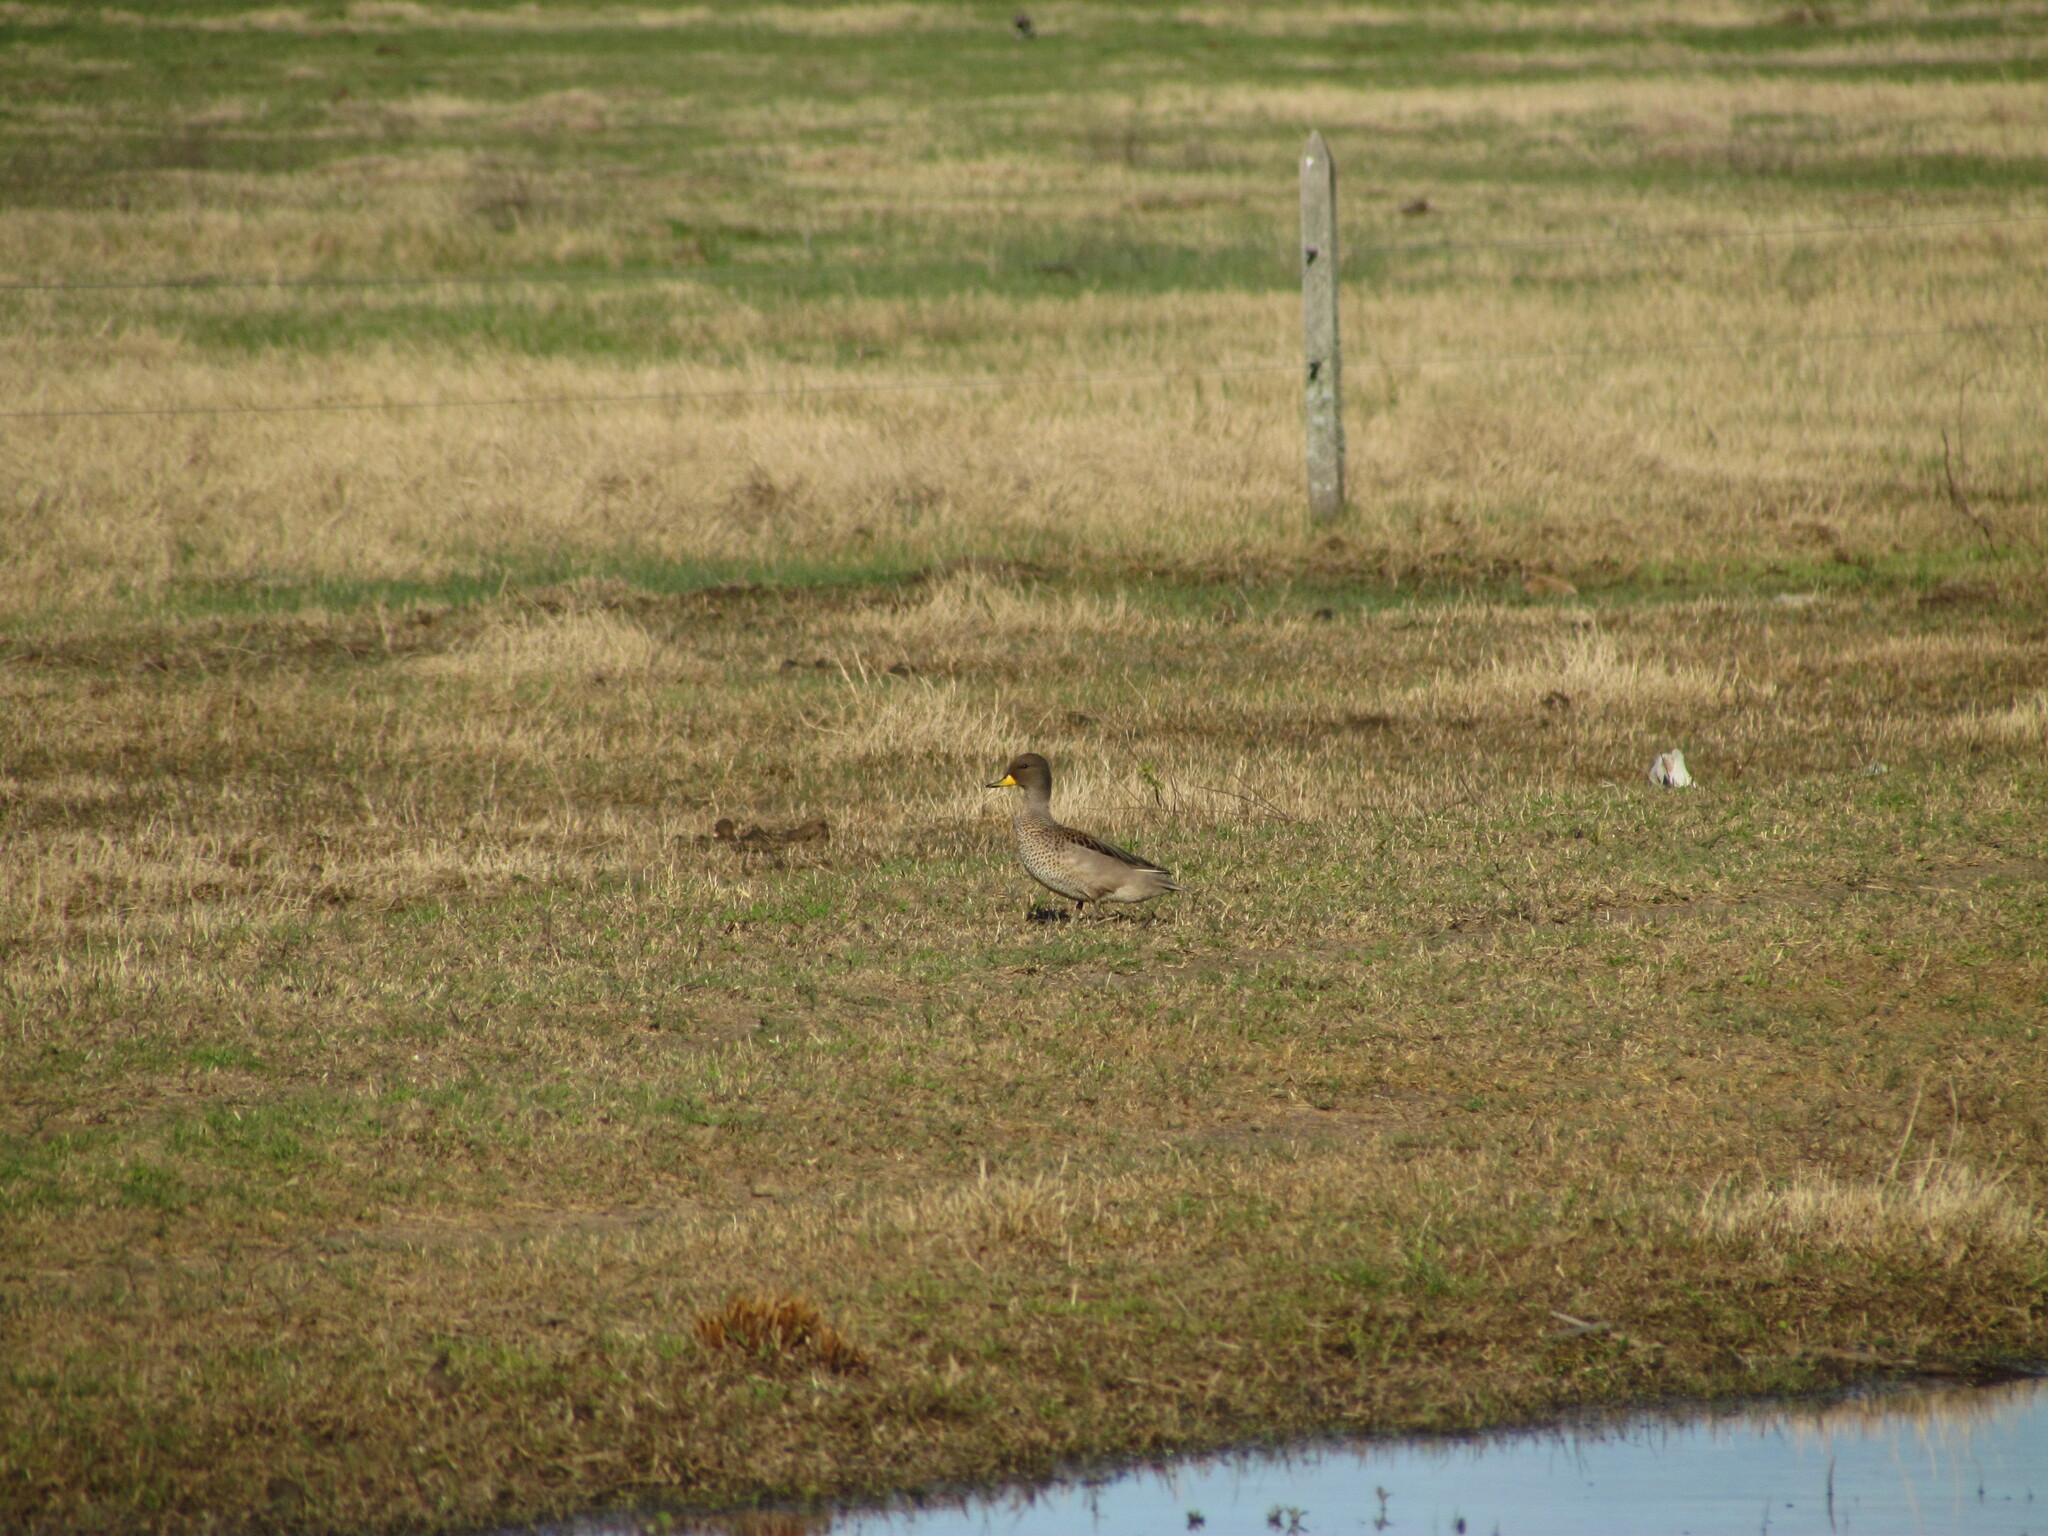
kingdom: Animalia
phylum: Chordata
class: Aves
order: Anseriformes
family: Anatidae
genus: Anas
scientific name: Anas flavirostris
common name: Yellow-billed teal
